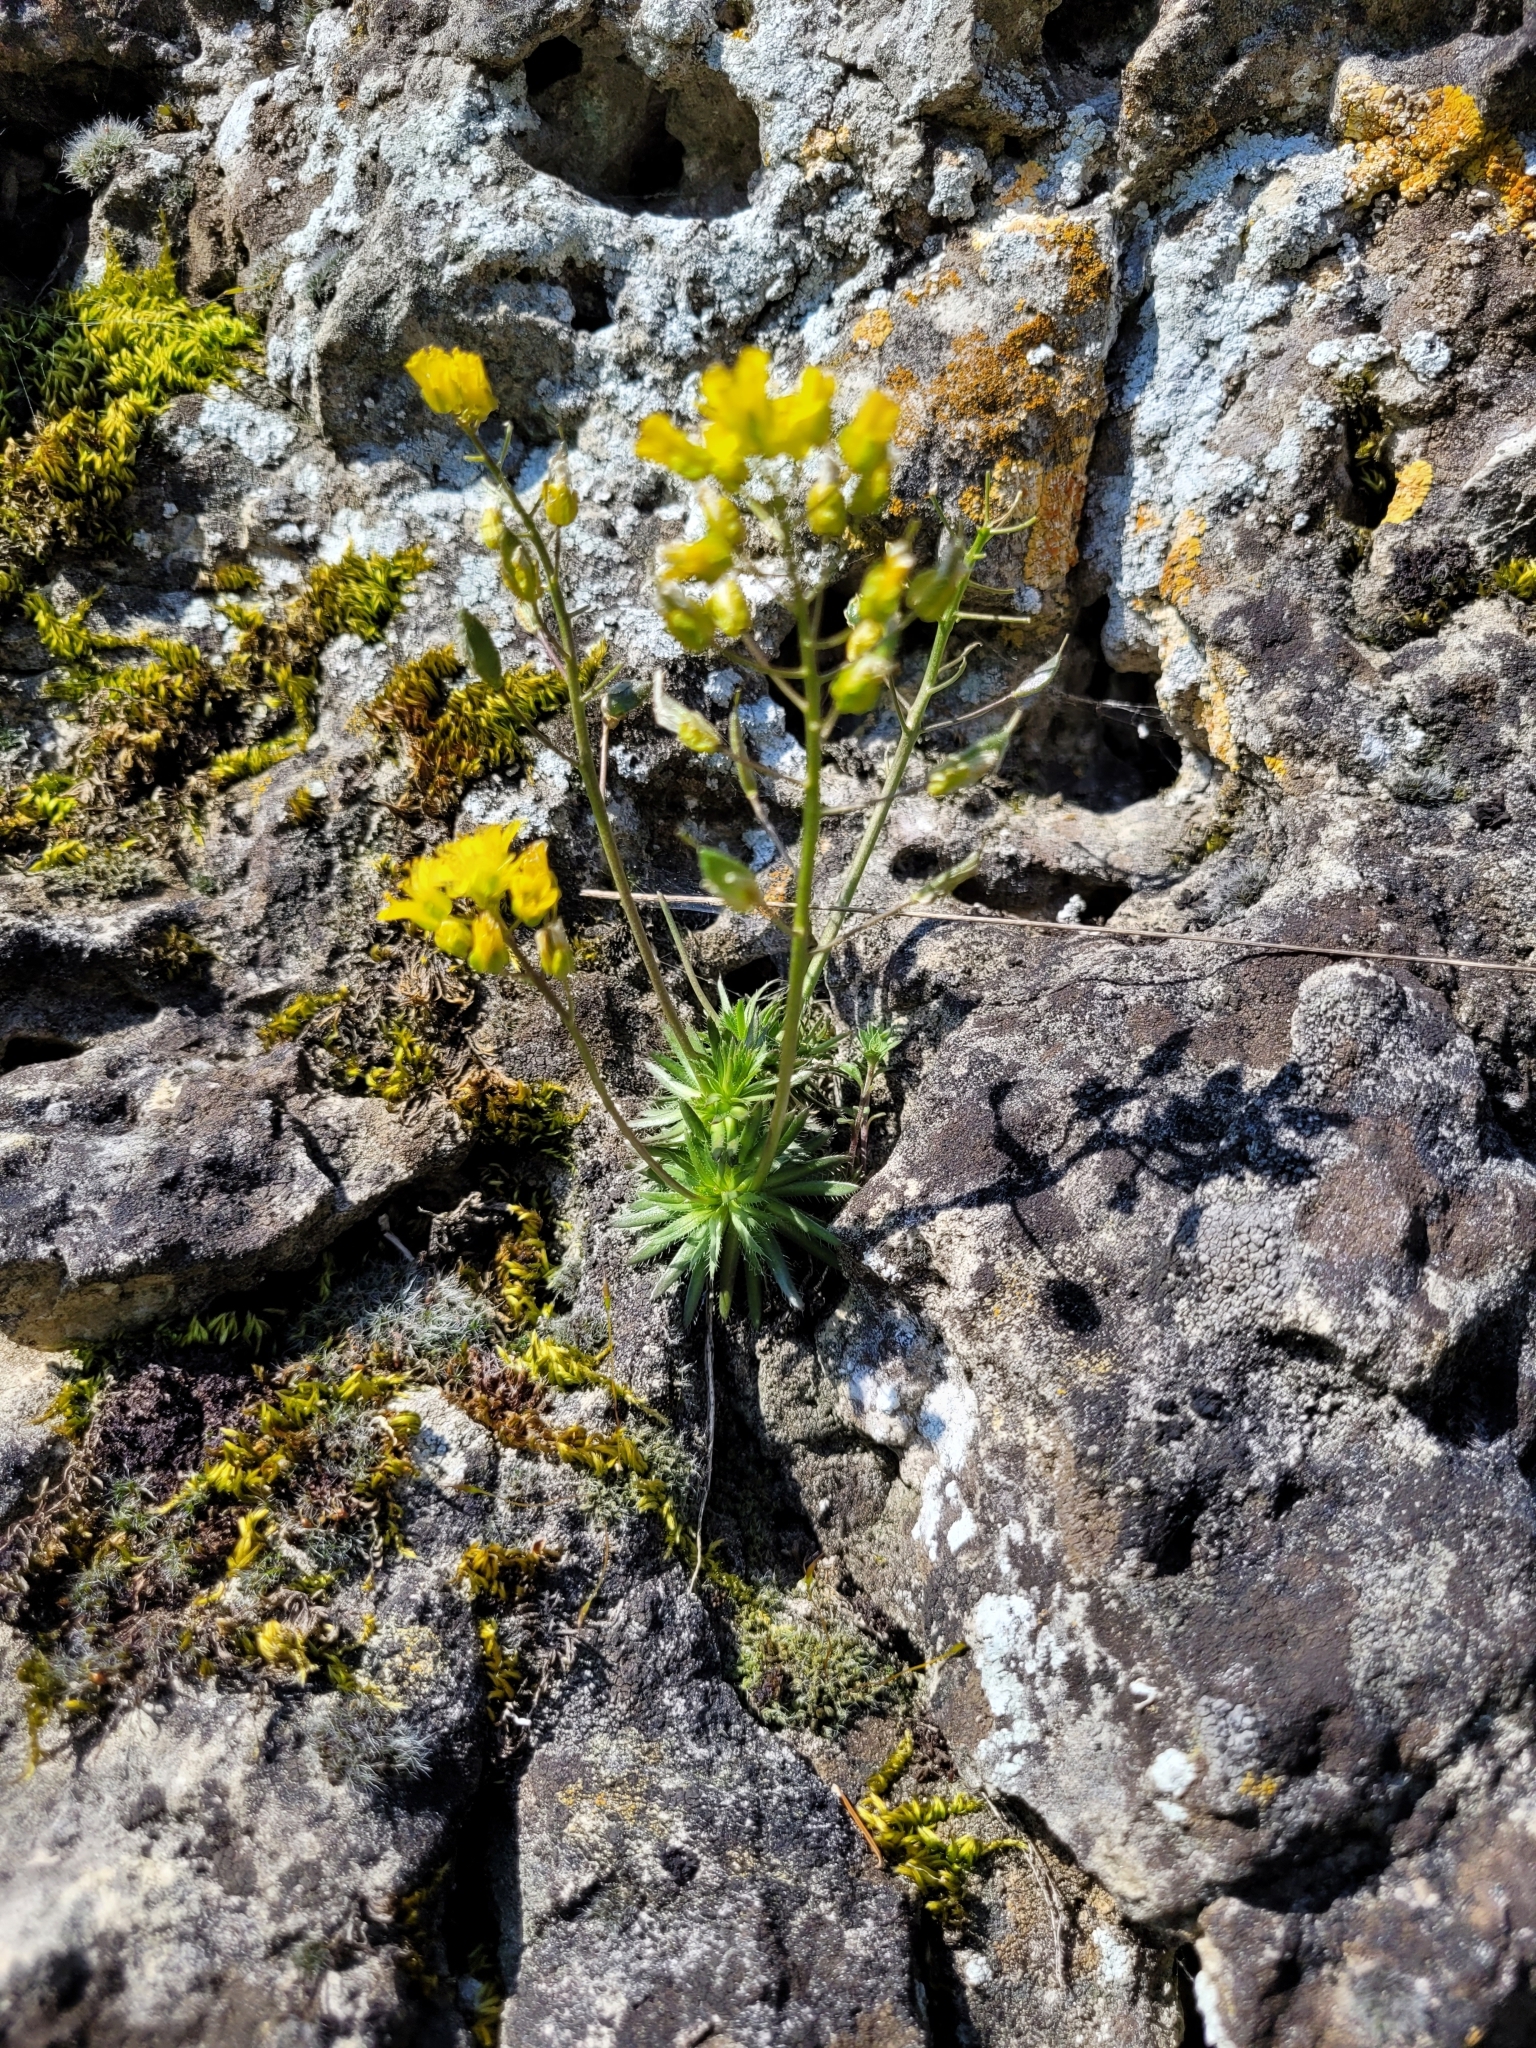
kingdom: Plantae
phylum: Tracheophyta
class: Magnoliopsida
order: Brassicales
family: Brassicaceae
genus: Draba
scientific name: Draba aizoides
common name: Yellow whitlowgrass
